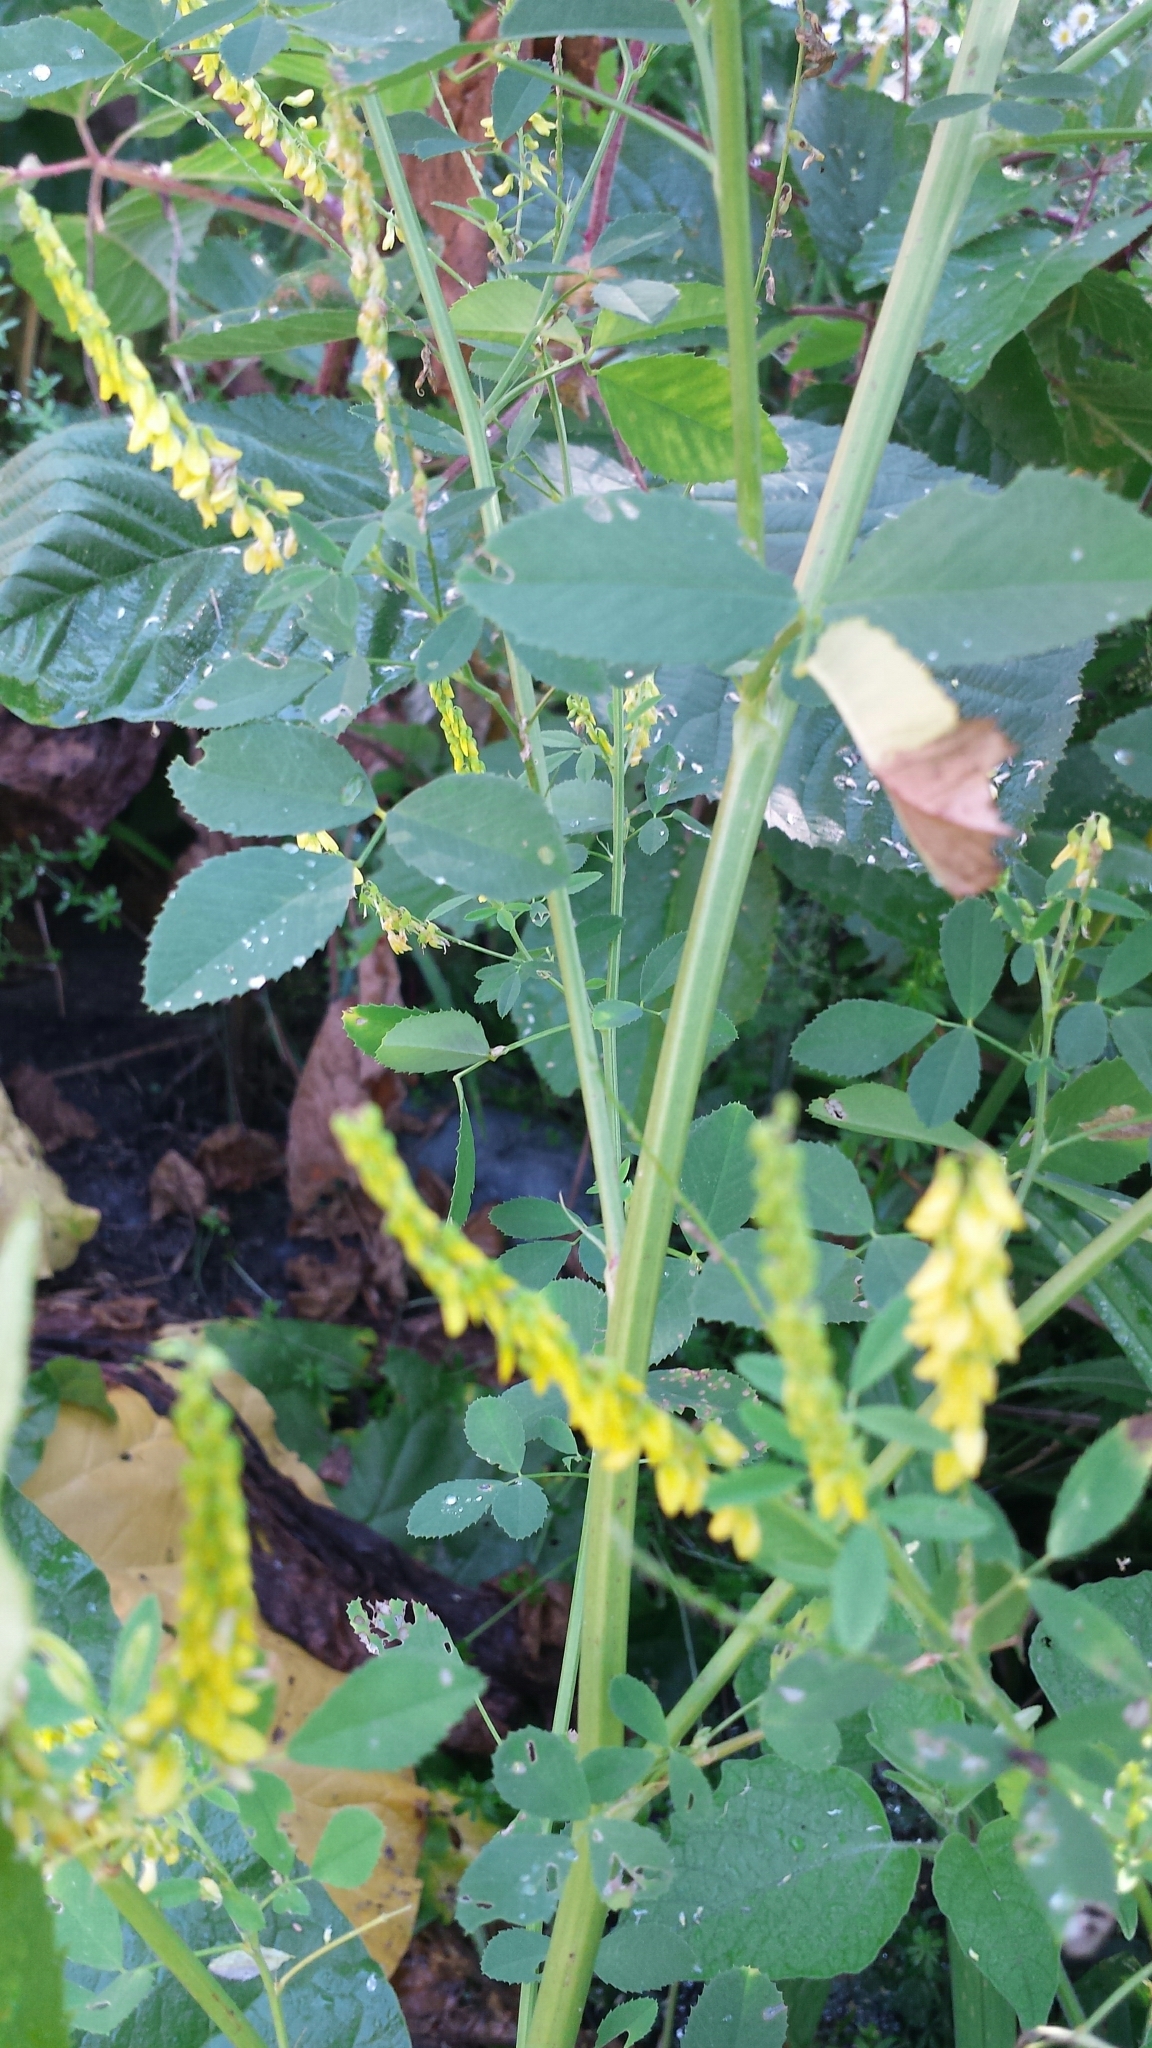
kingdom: Plantae
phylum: Tracheophyta
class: Magnoliopsida
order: Fabales
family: Fabaceae
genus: Melilotus
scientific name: Melilotus officinalis
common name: Sweetclover
